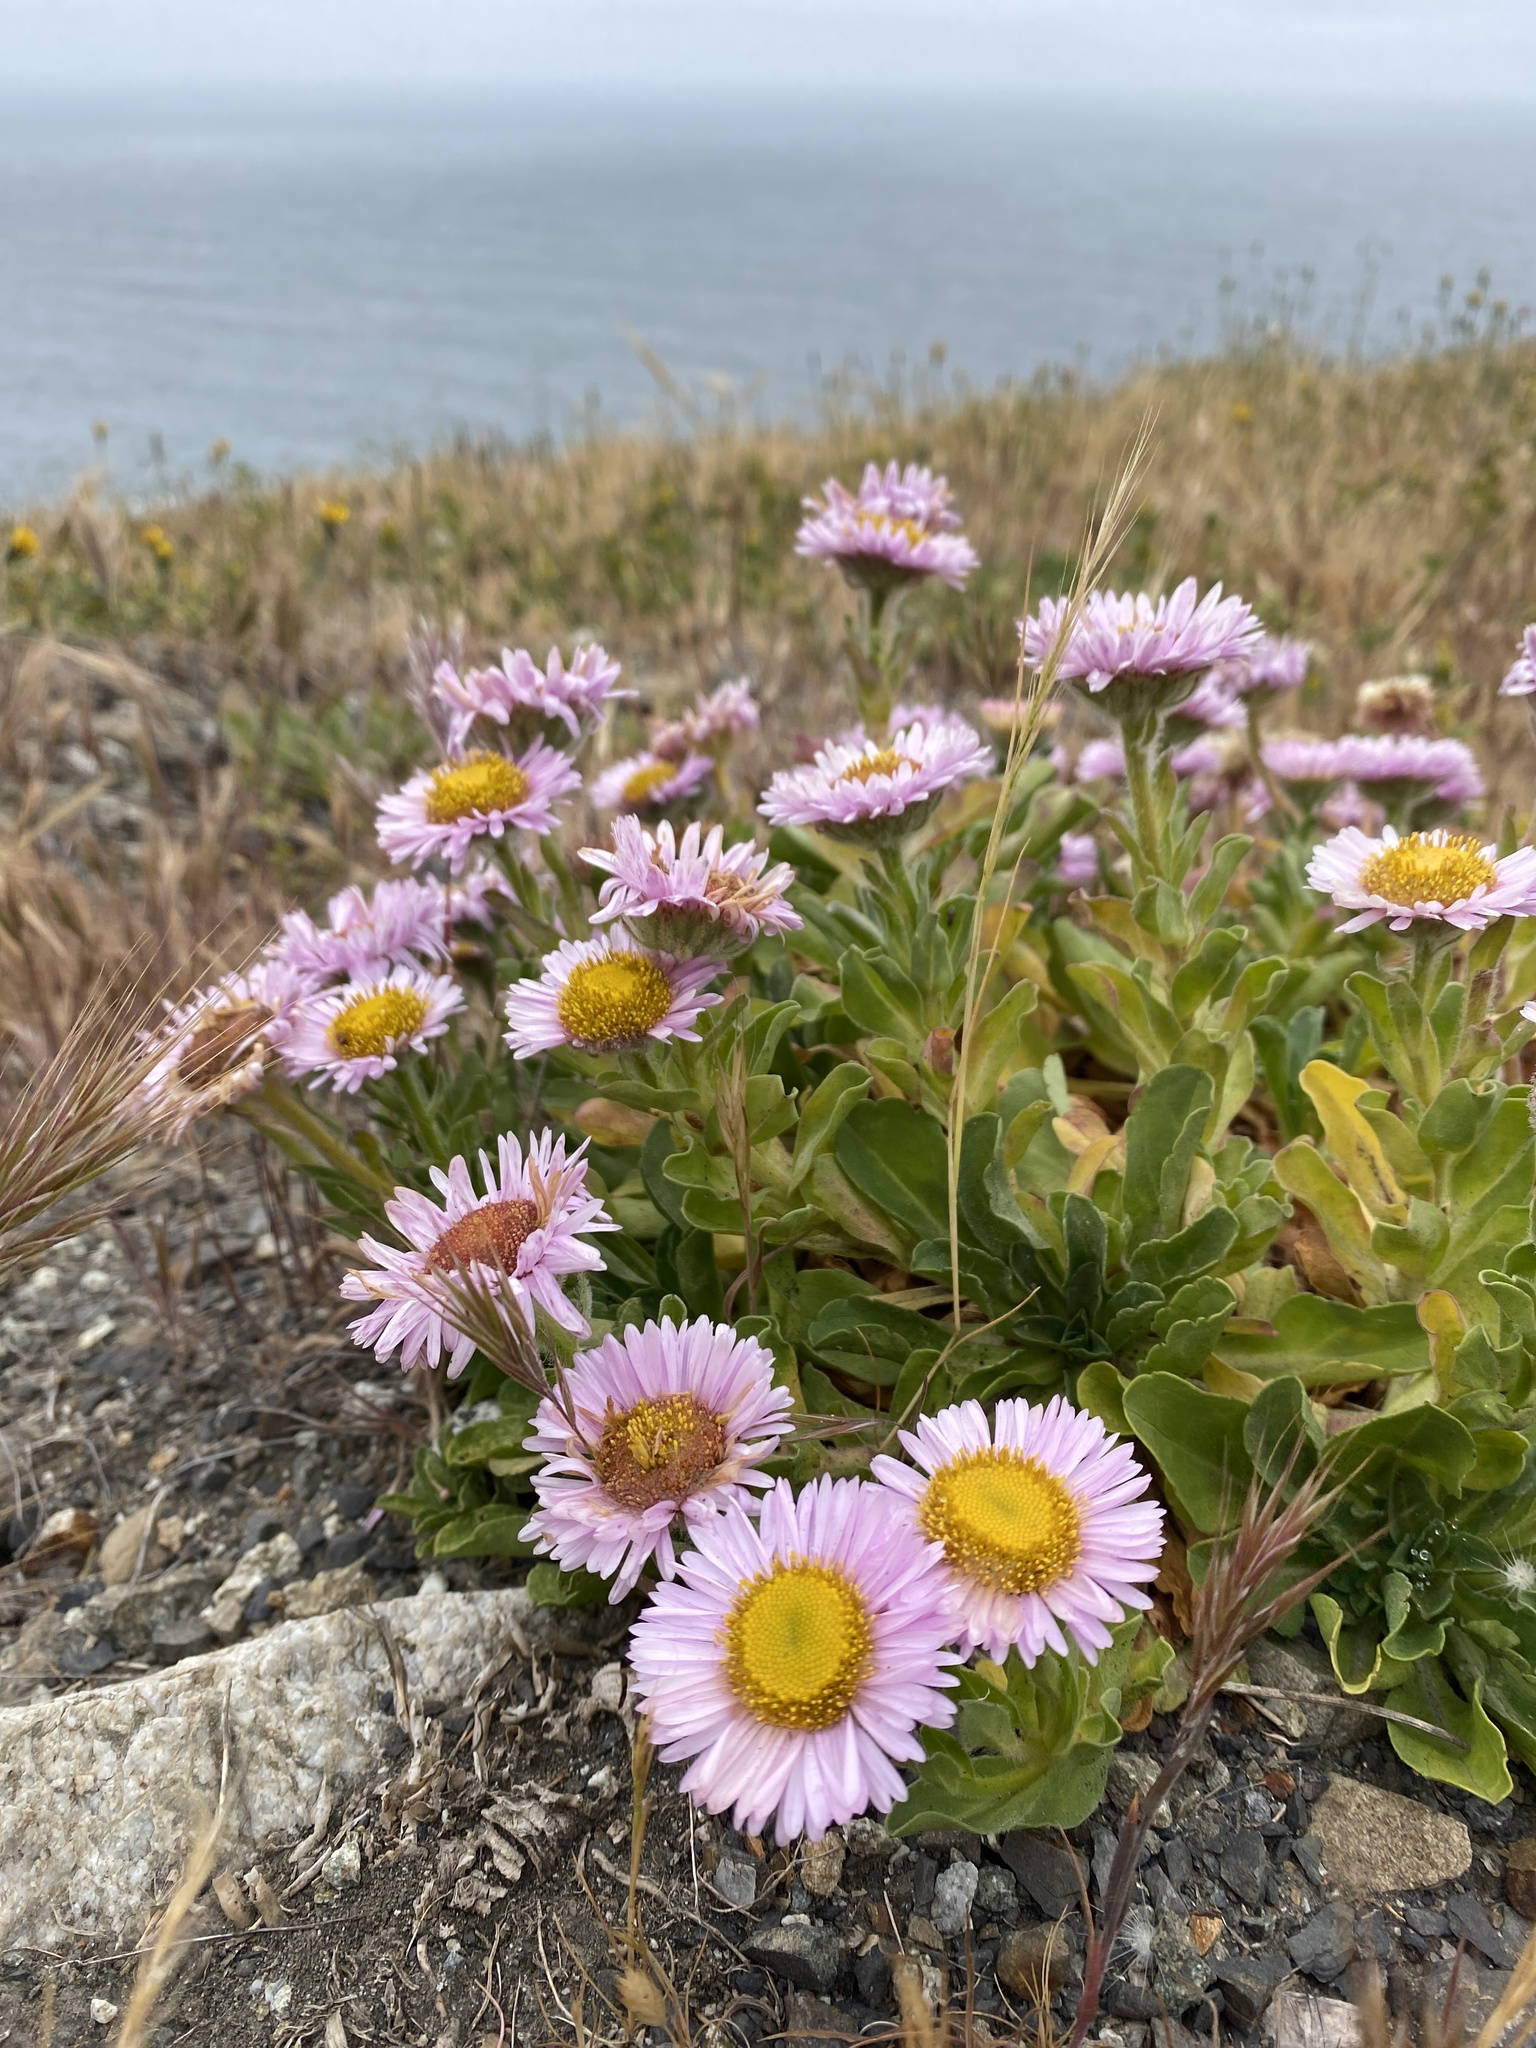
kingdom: Plantae
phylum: Tracheophyta
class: Magnoliopsida
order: Asterales
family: Asteraceae
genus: Erigeron
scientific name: Erigeron glaucus
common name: Seaside daisy
